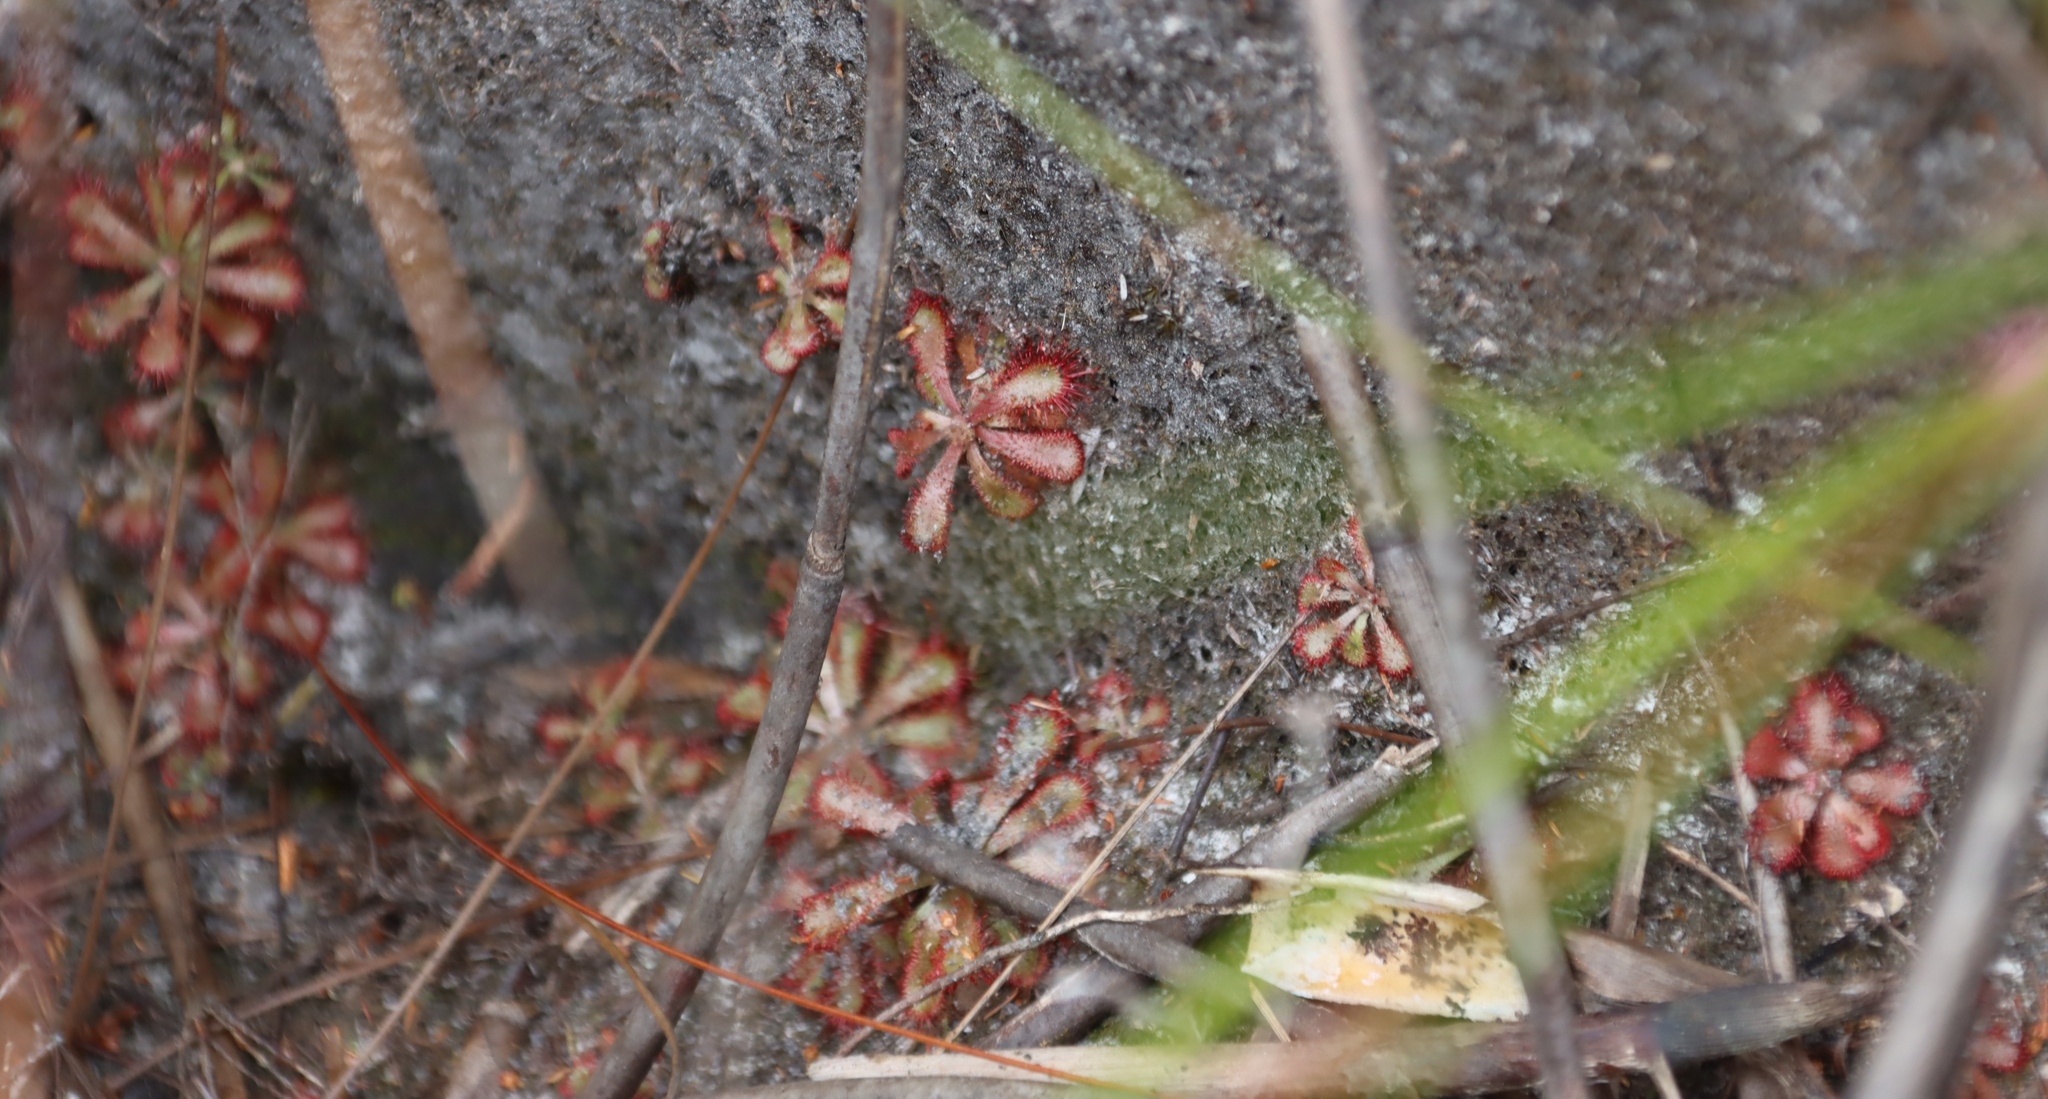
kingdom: Plantae
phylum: Tracheophyta
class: Magnoliopsida
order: Caryophyllales
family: Droseraceae
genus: Drosera
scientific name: Drosera aliciae
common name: Alice sundew
